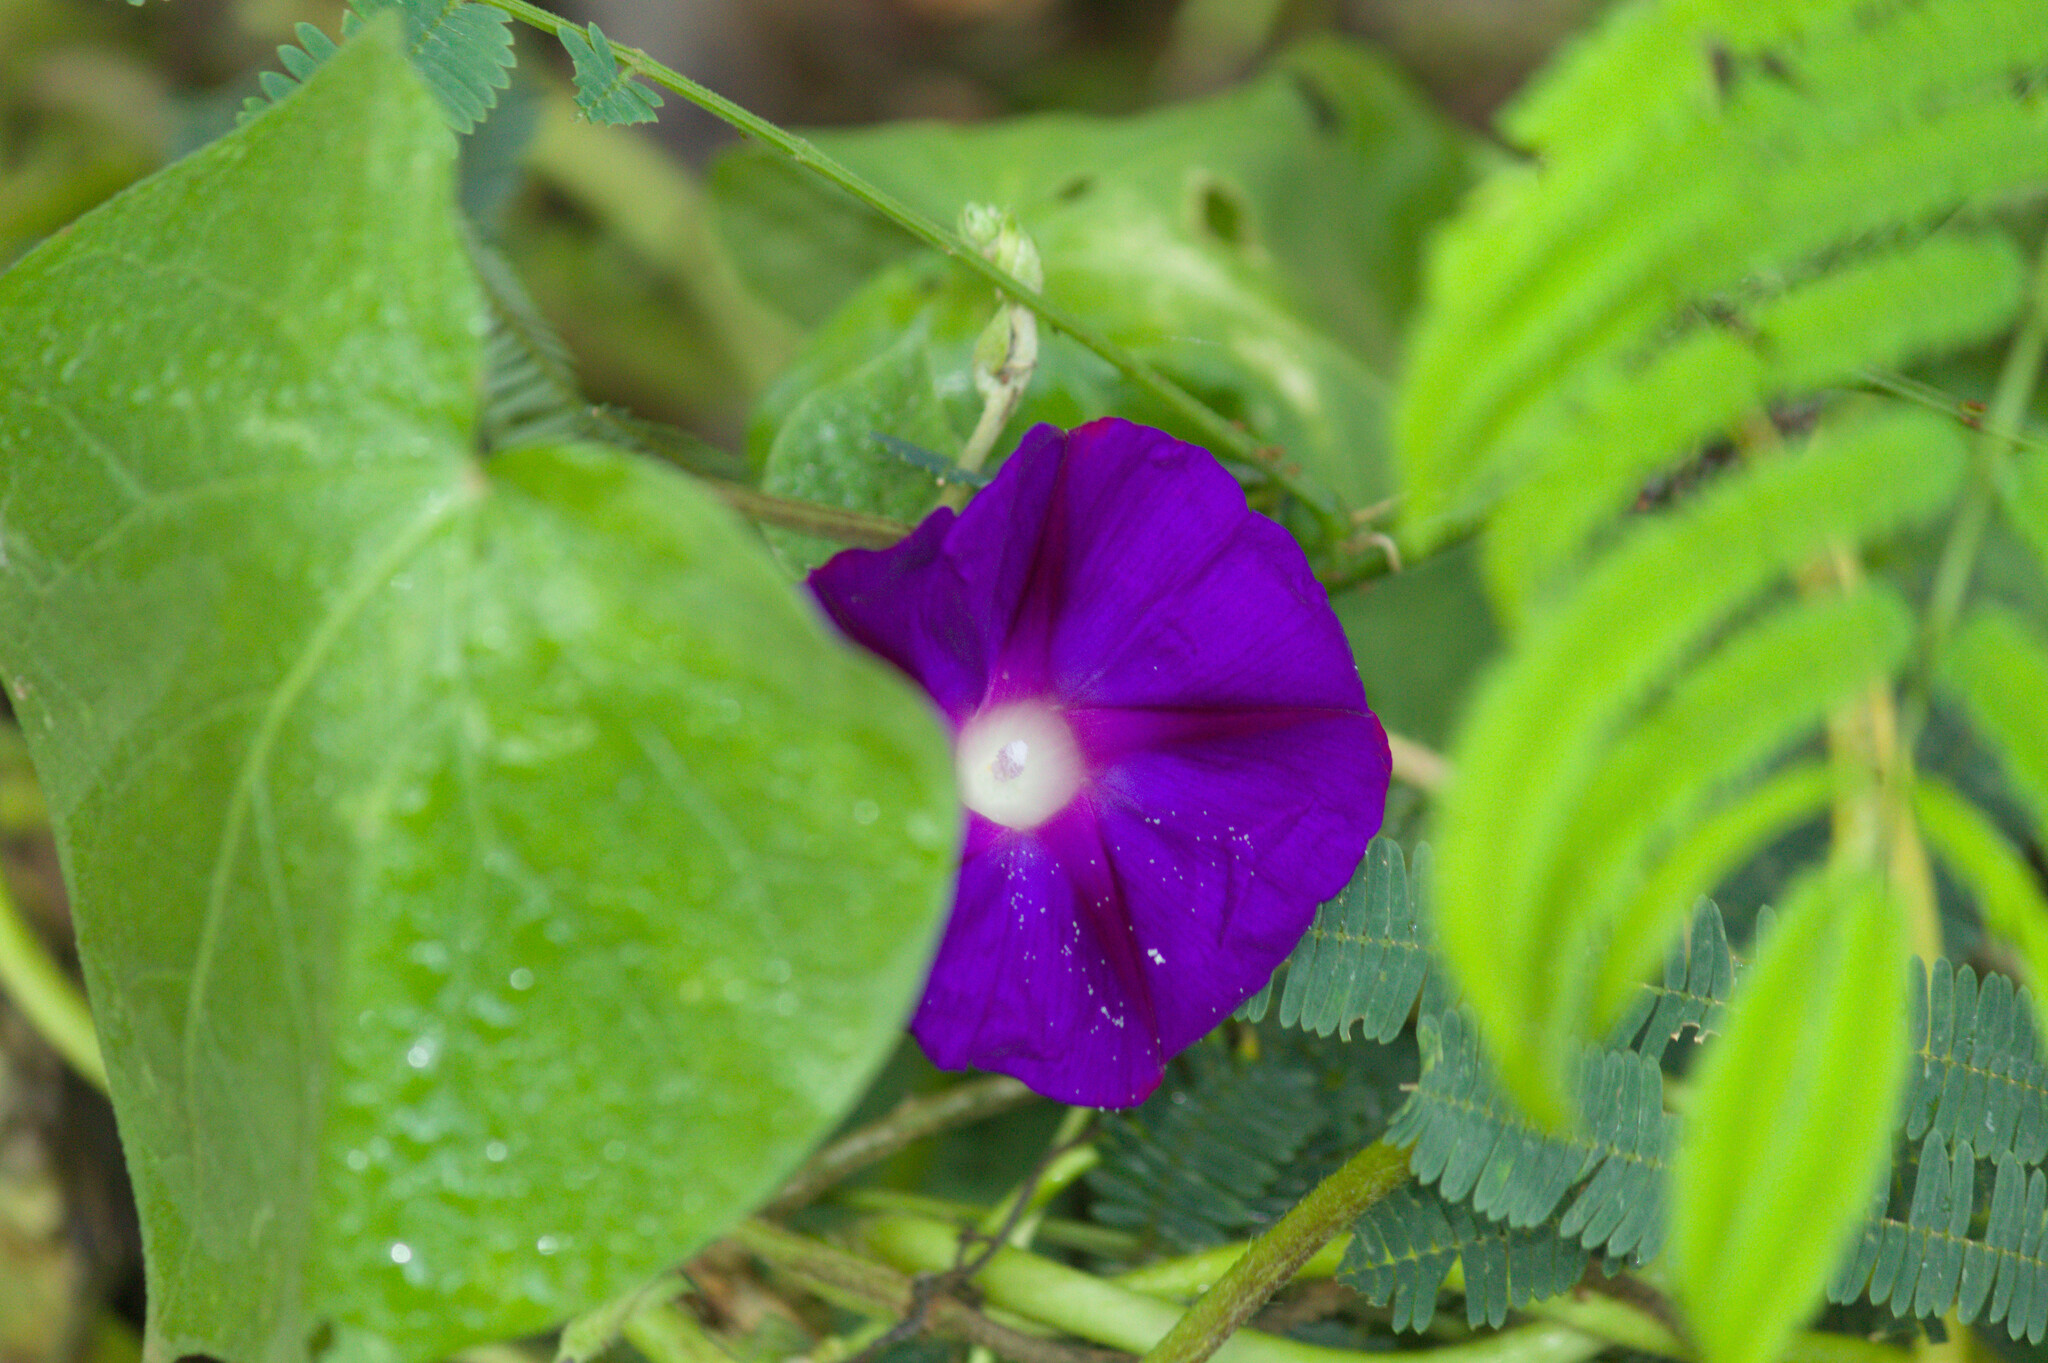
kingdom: Plantae
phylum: Tracheophyta
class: Magnoliopsida
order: Solanales
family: Convolvulaceae
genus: Ipomoea
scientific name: Ipomoea purpurea
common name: Common morning-glory
